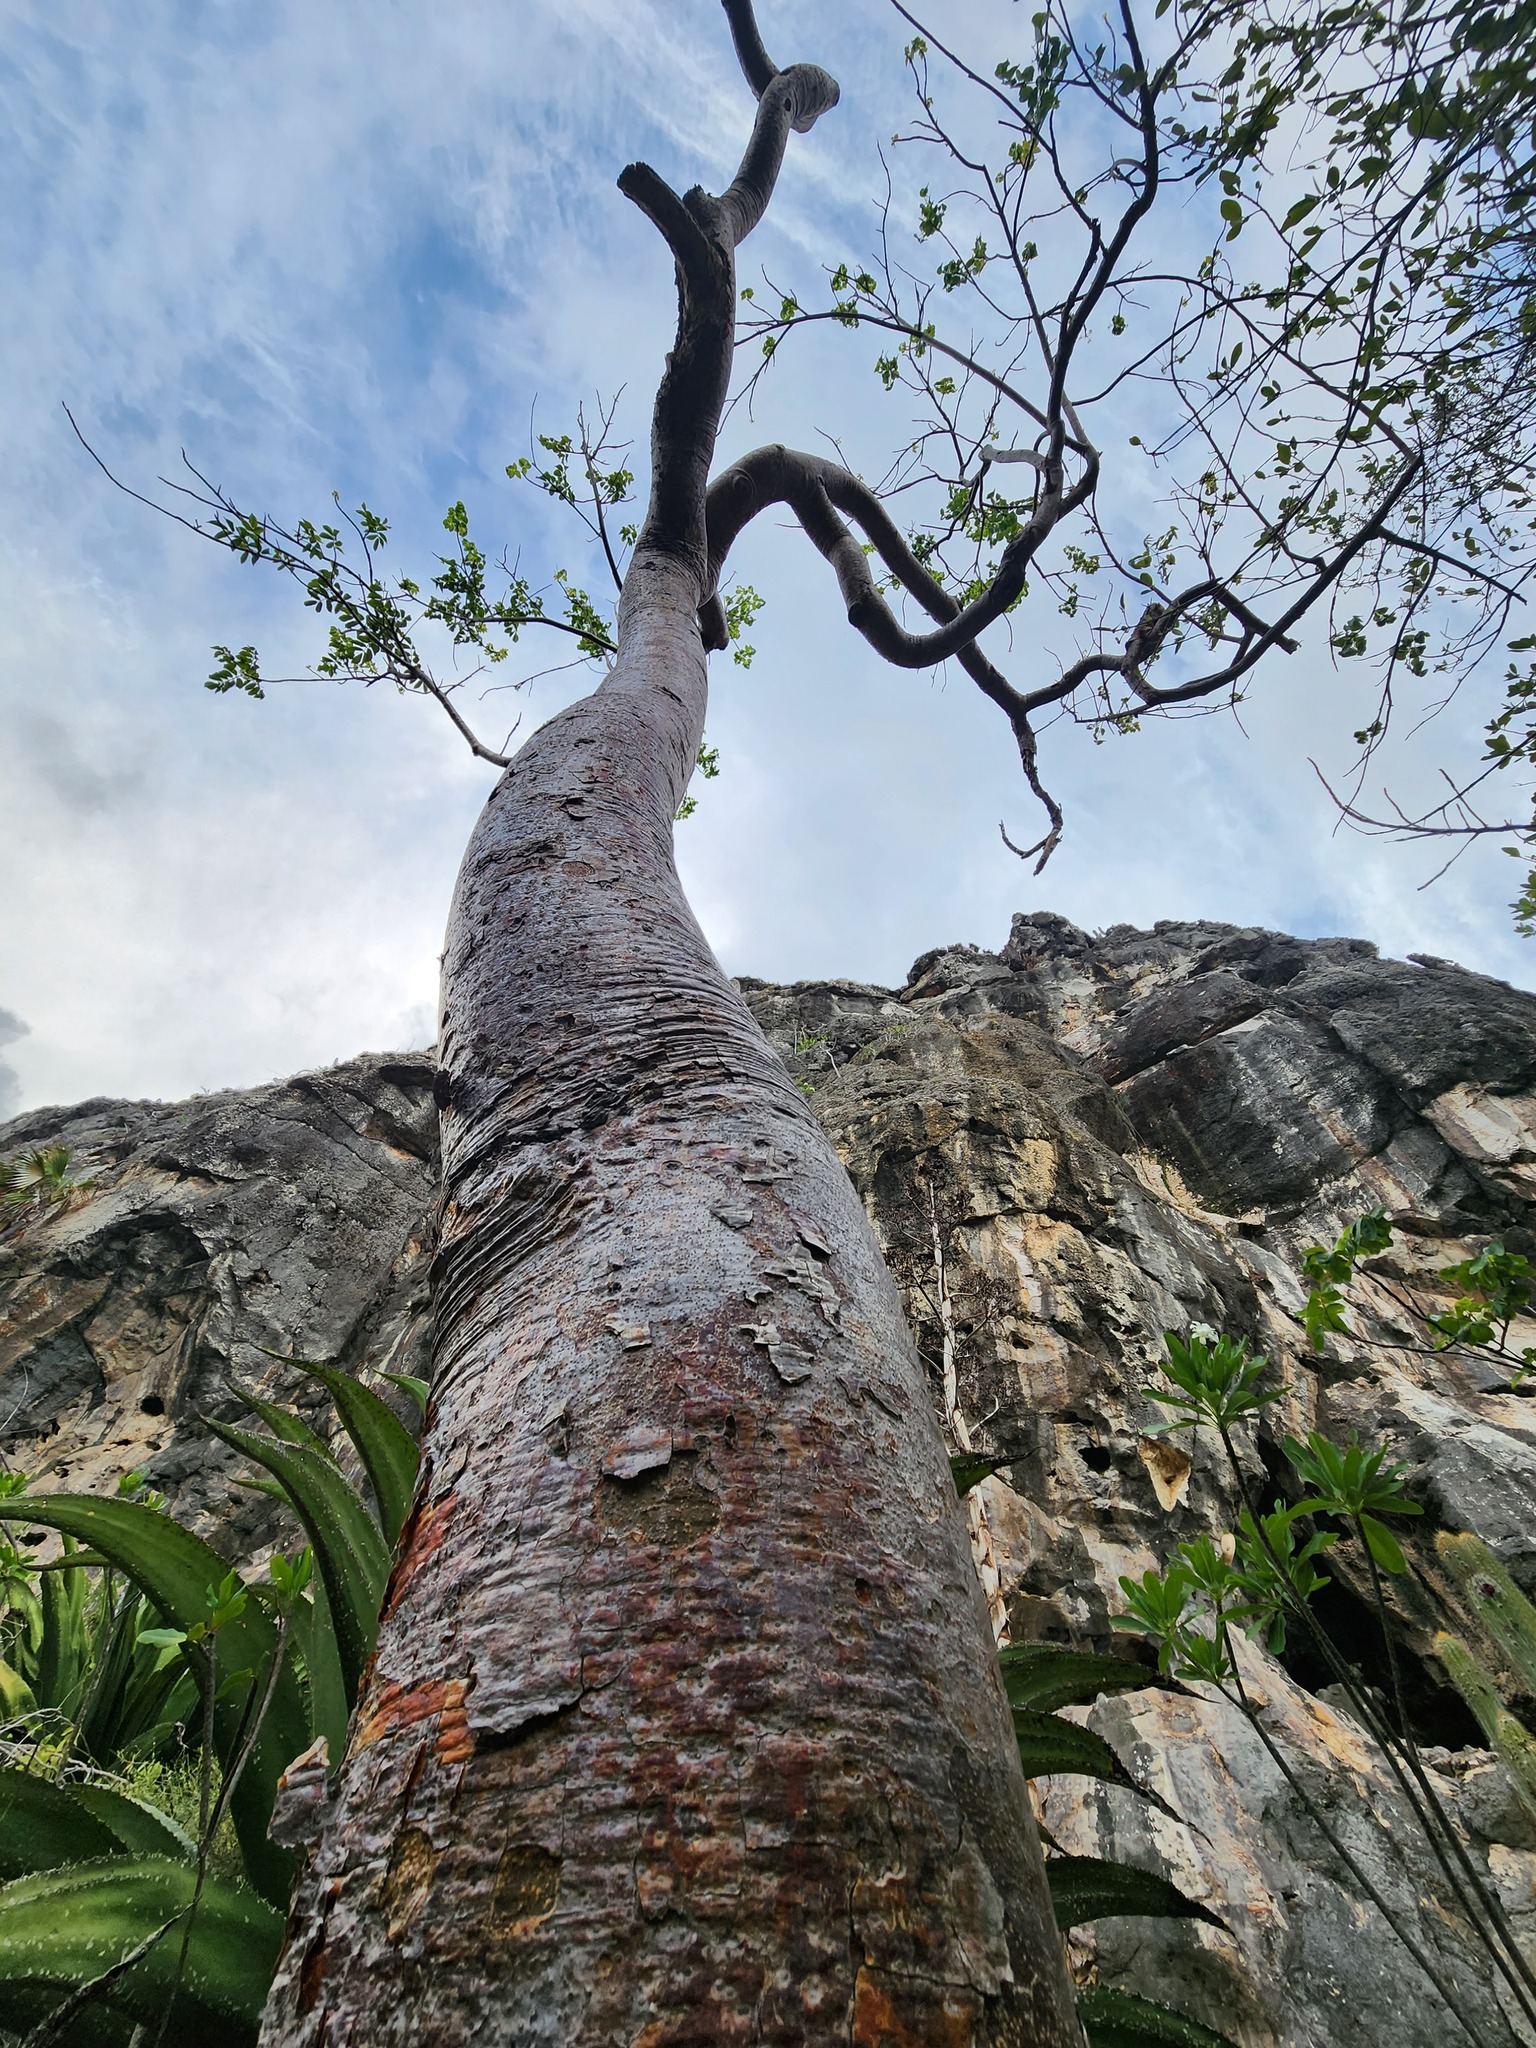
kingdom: Plantae
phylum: Tracheophyta
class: Magnoliopsida
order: Sapindales
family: Burseraceae
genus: Bursera
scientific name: Bursera simaruba
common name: Turpentine tree
